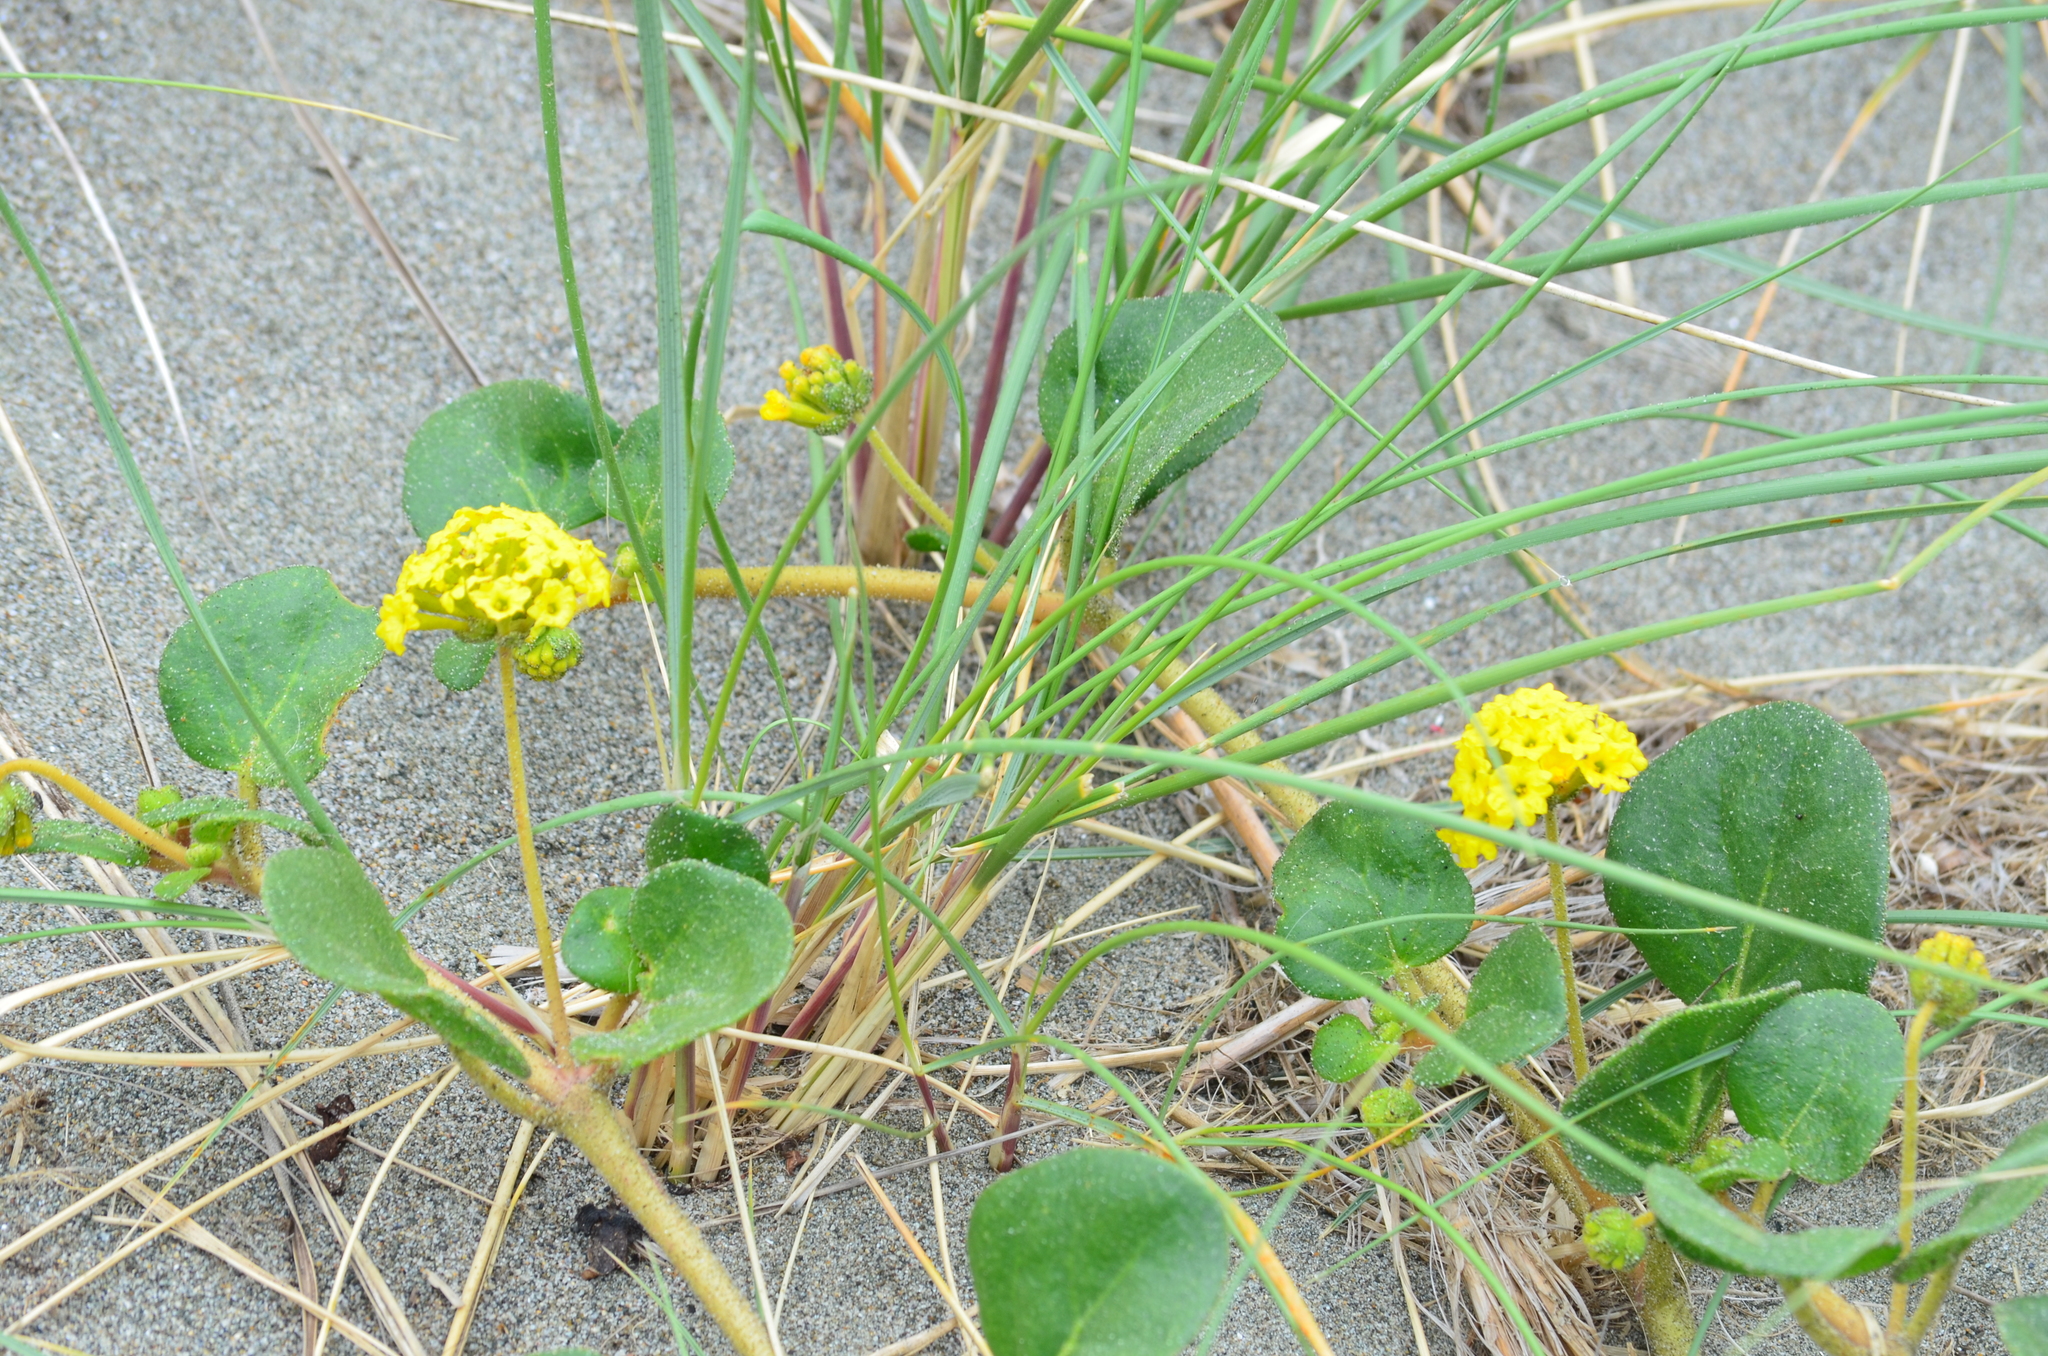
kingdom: Plantae
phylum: Tracheophyta
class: Magnoliopsida
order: Caryophyllales
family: Nyctaginaceae
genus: Abronia
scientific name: Abronia latifolia
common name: Yellow sand-verbena
